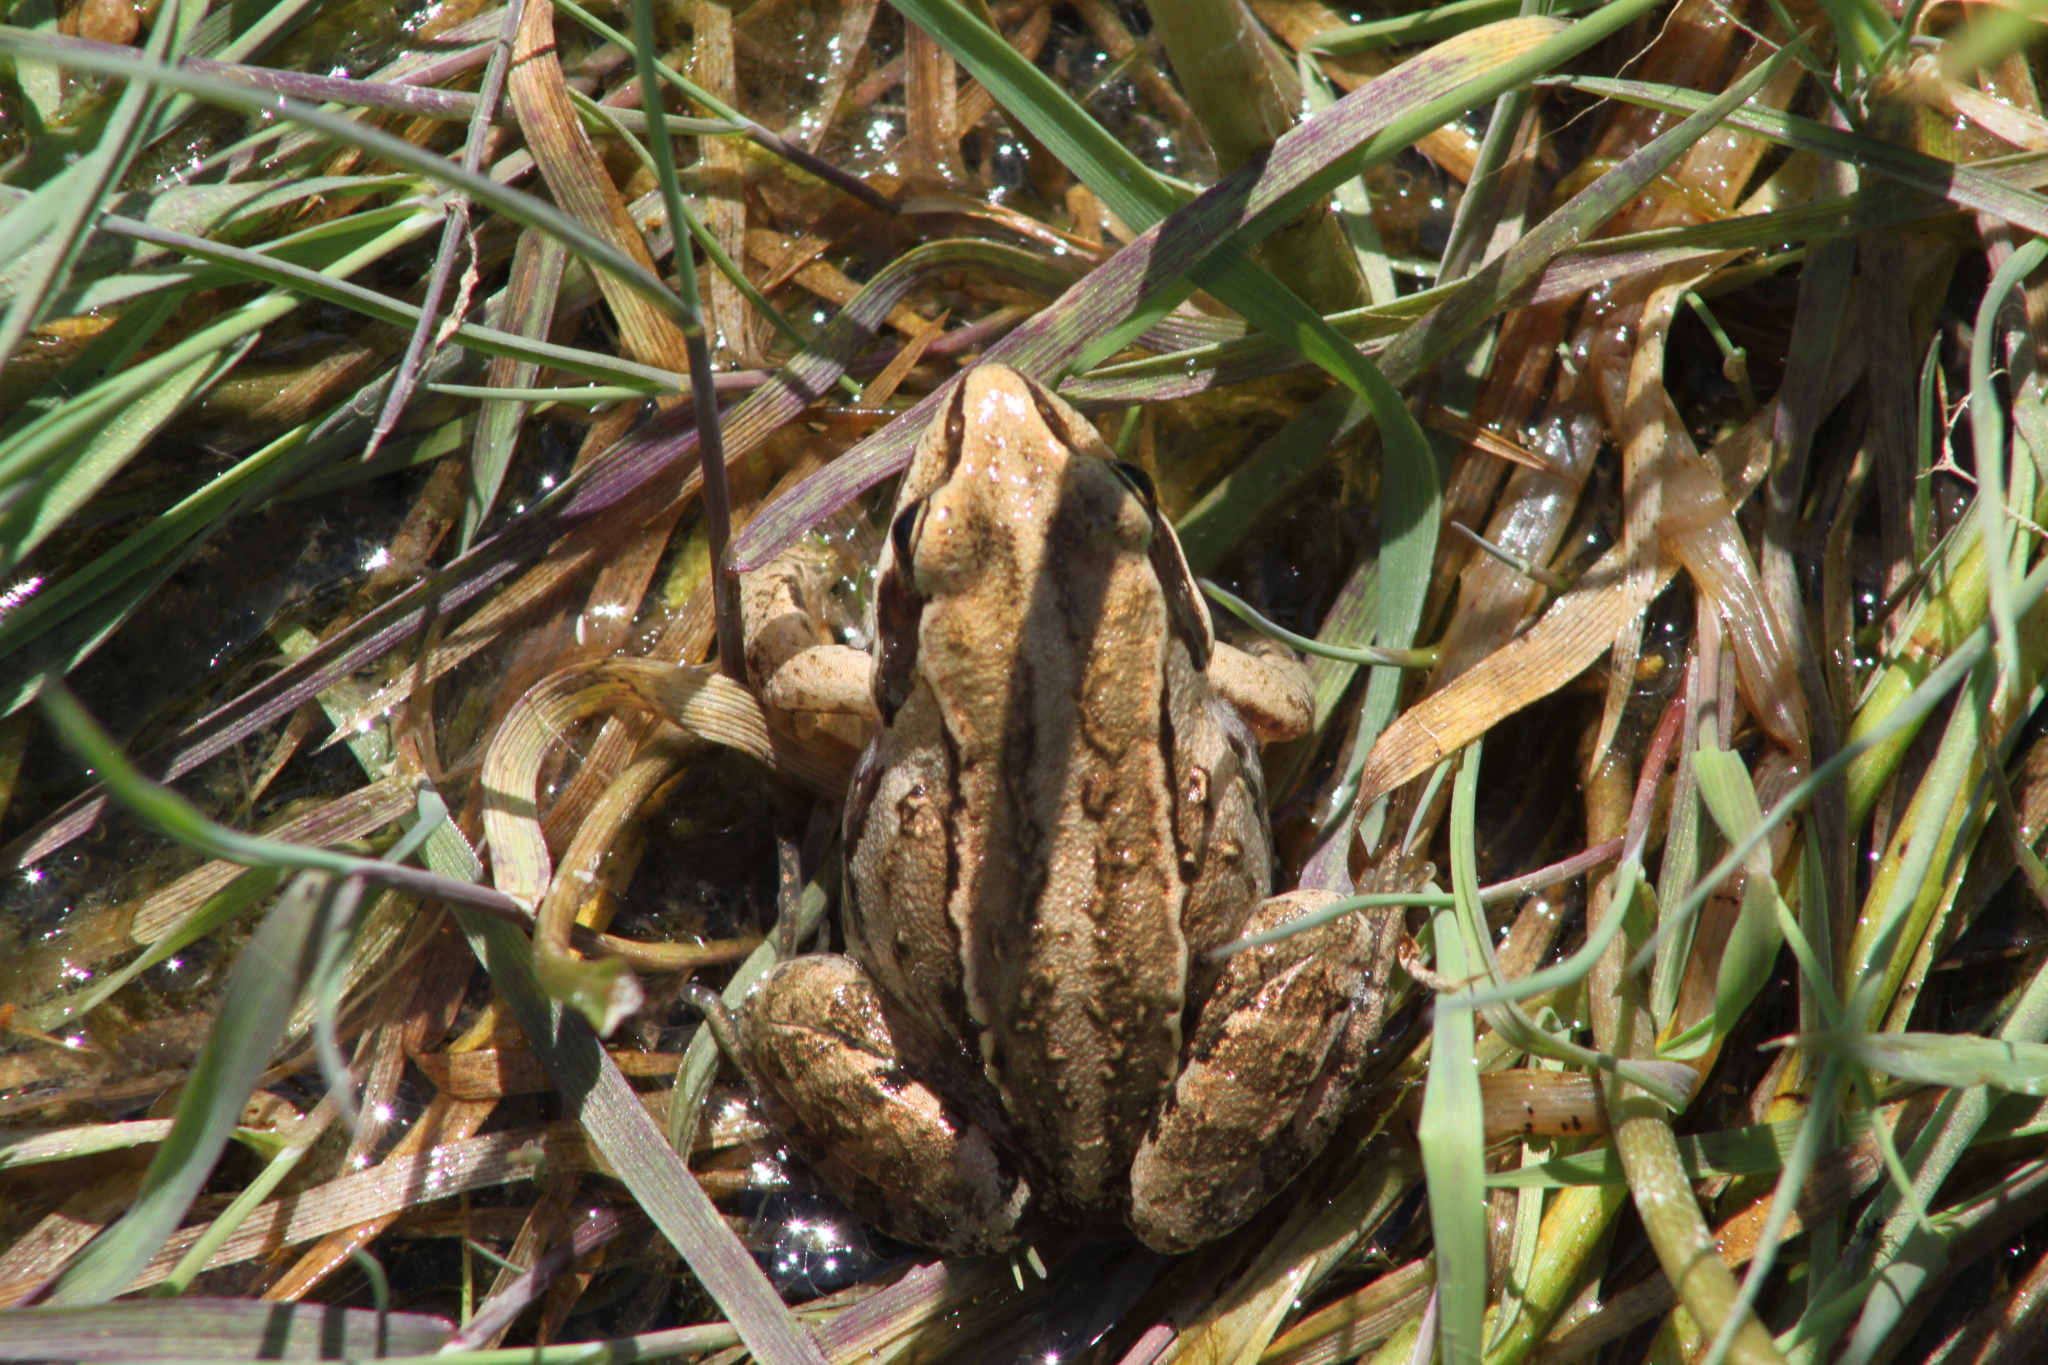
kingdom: Animalia
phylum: Chordata
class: Amphibia
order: Anura
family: Ranidae
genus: Rana
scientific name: Rana arvalis
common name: Moor frog
